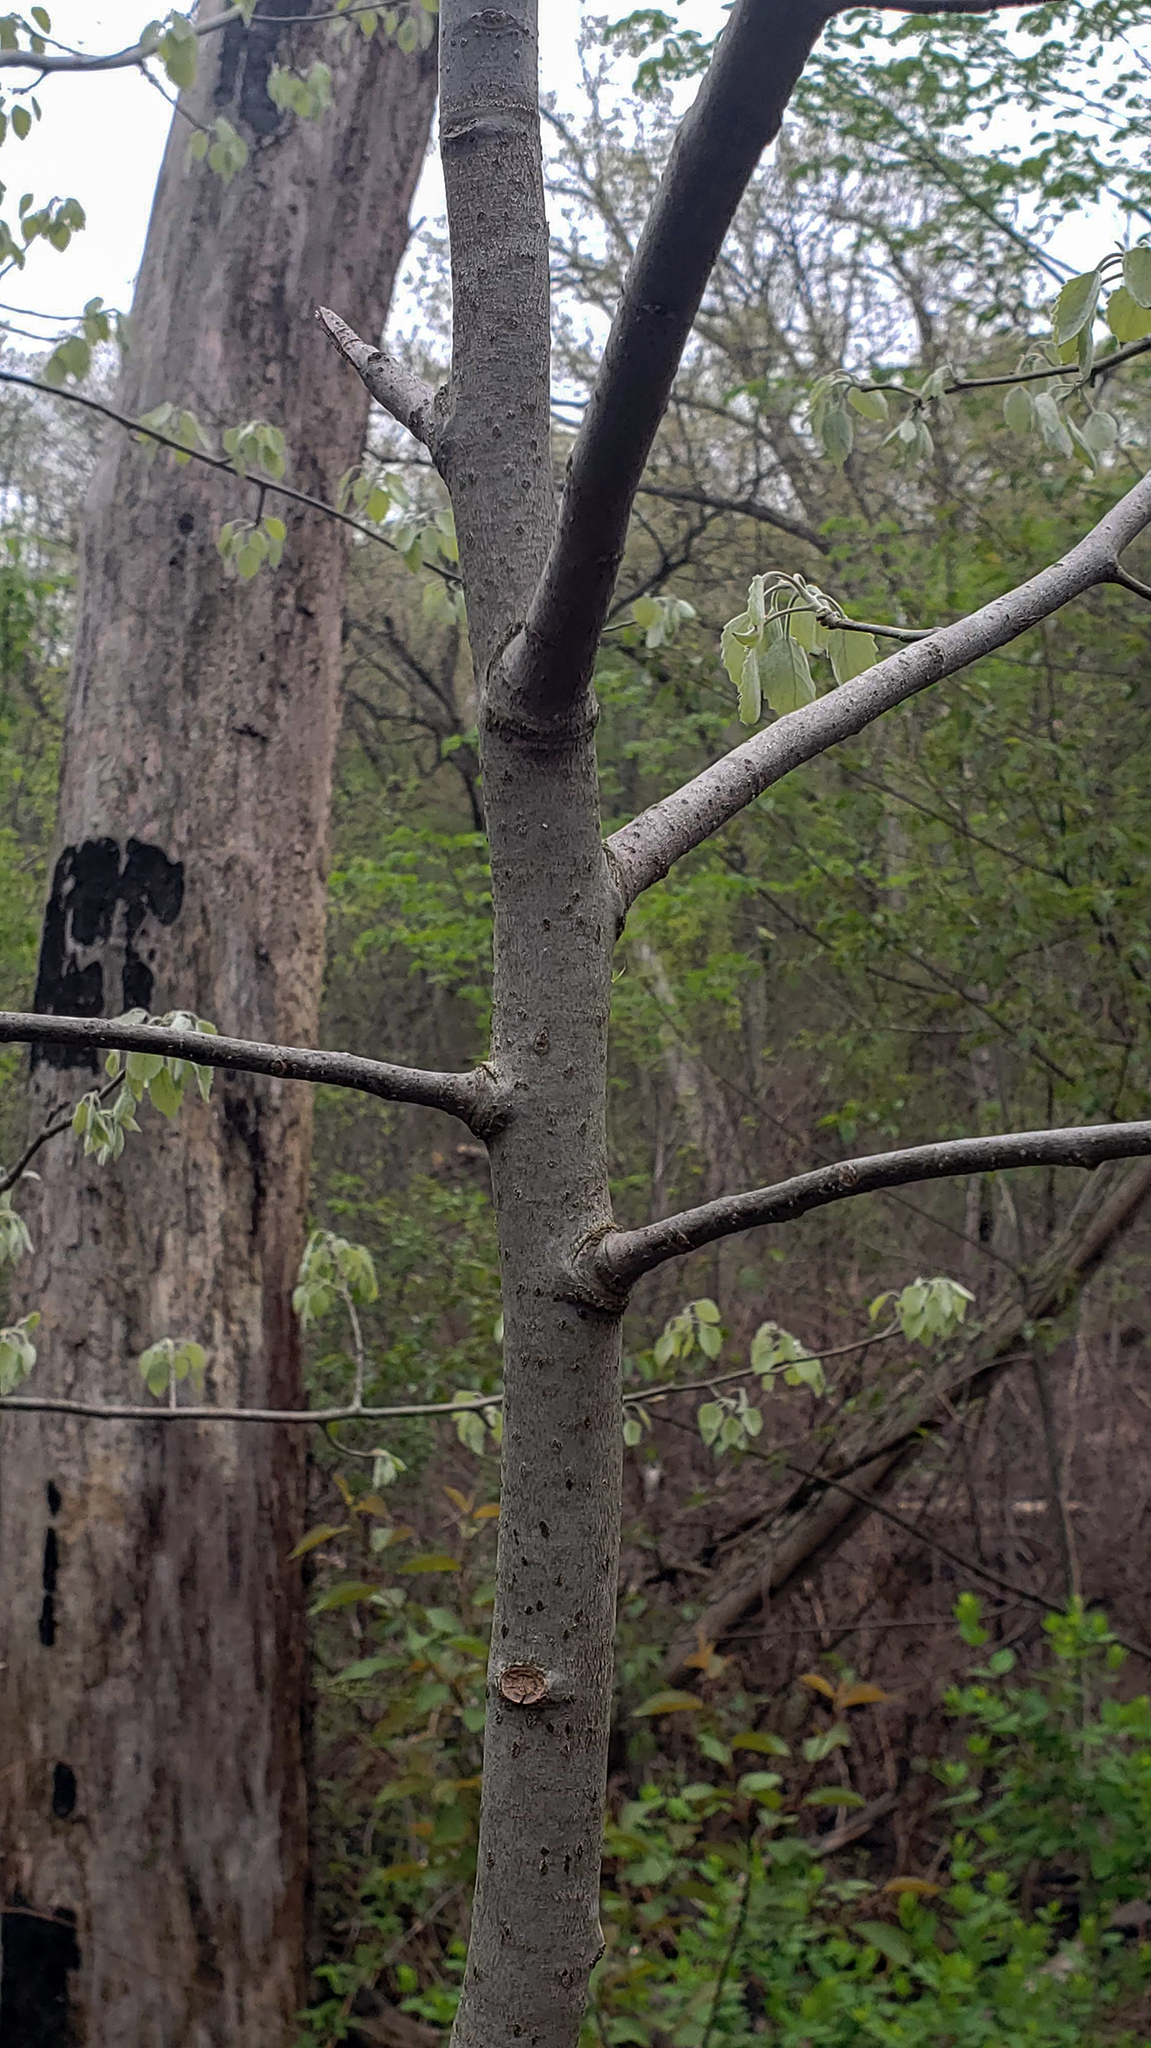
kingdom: Plantae
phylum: Tracheophyta
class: Magnoliopsida
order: Malpighiales
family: Salicaceae
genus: Populus
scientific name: Populus grandidentata
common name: Bigtooth aspen
